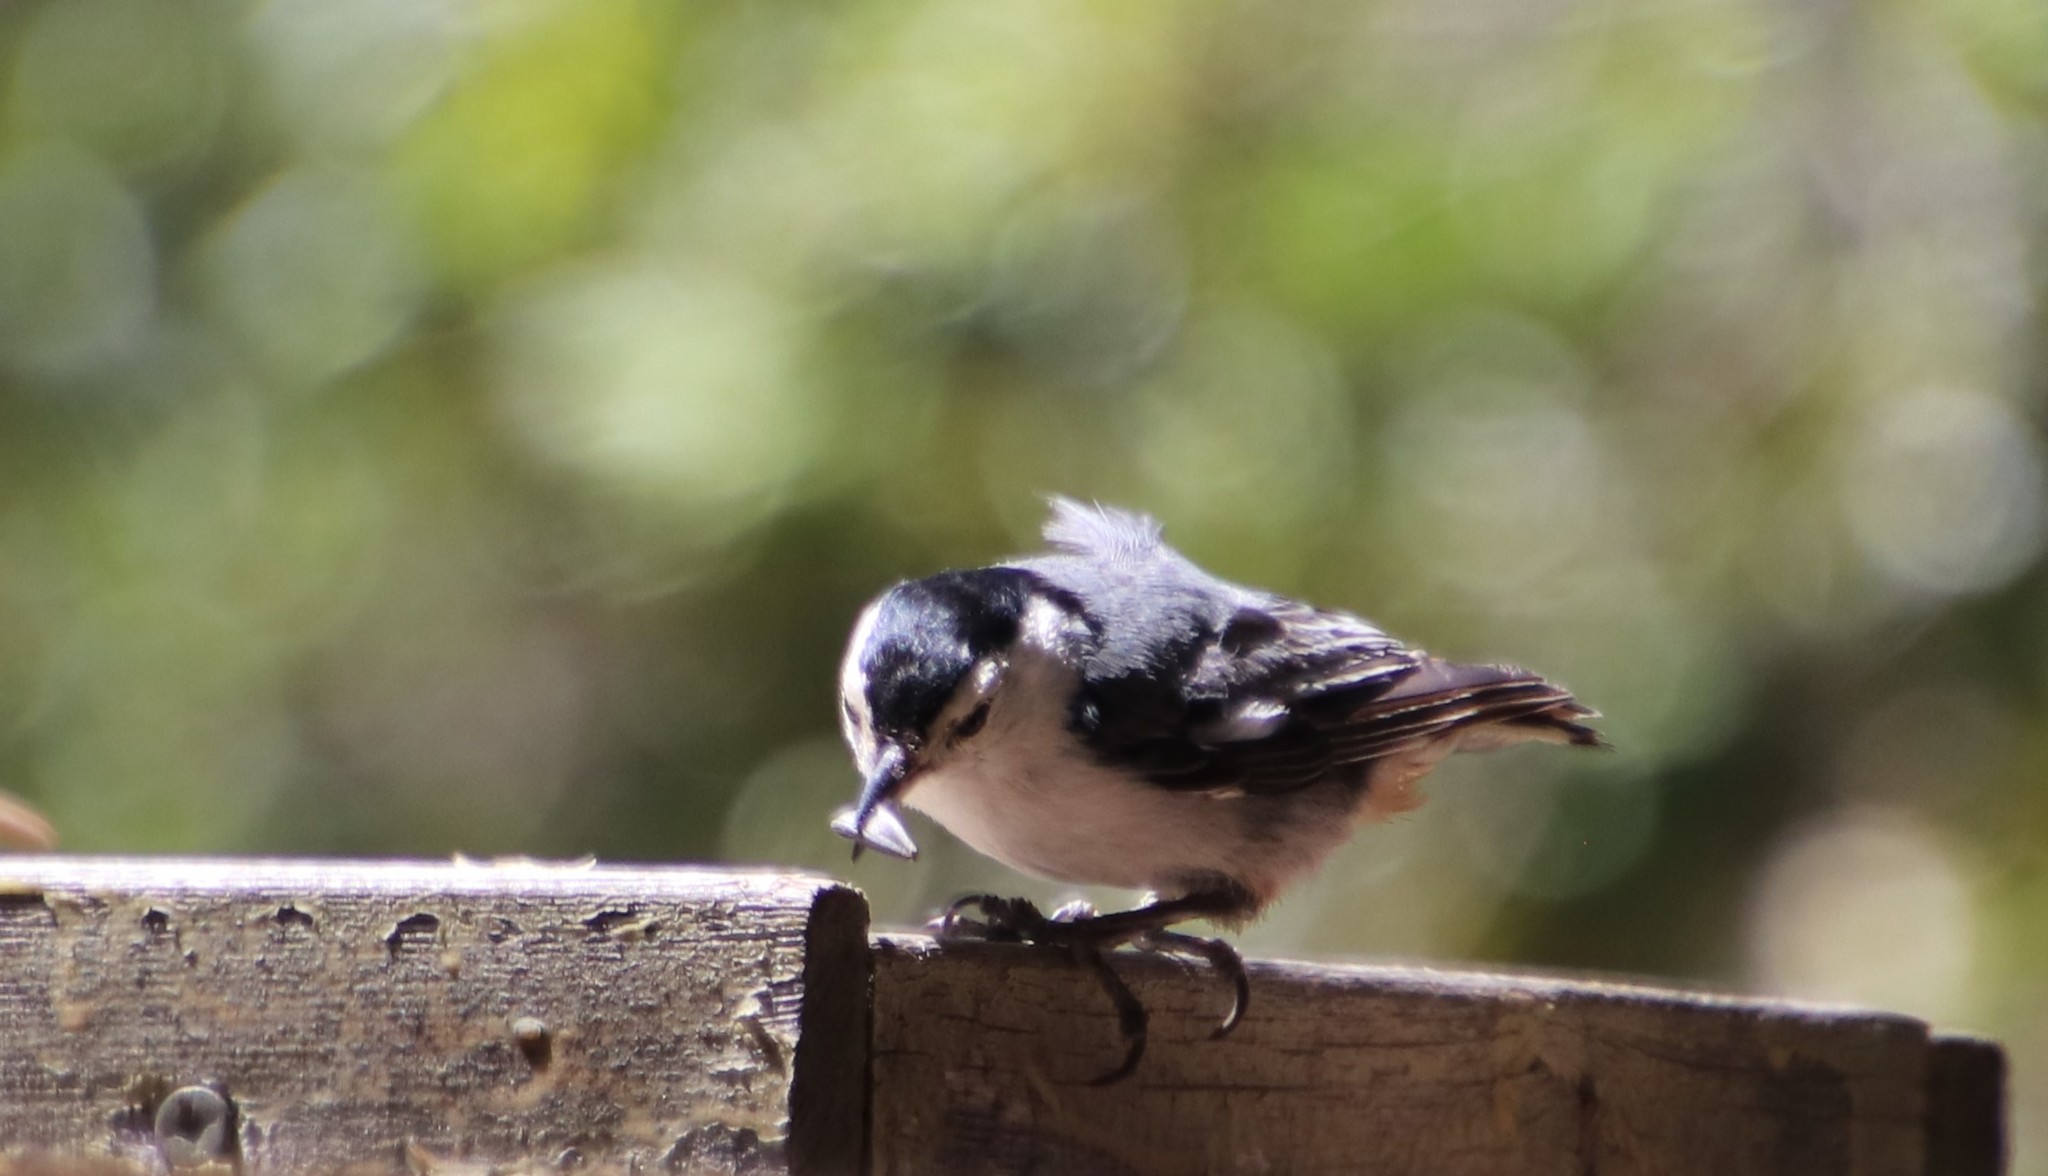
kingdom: Animalia
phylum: Chordata
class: Aves
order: Passeriformes
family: Sittidae
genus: Sitta
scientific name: Sitta carolinensis
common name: White-breasted nuthatch
